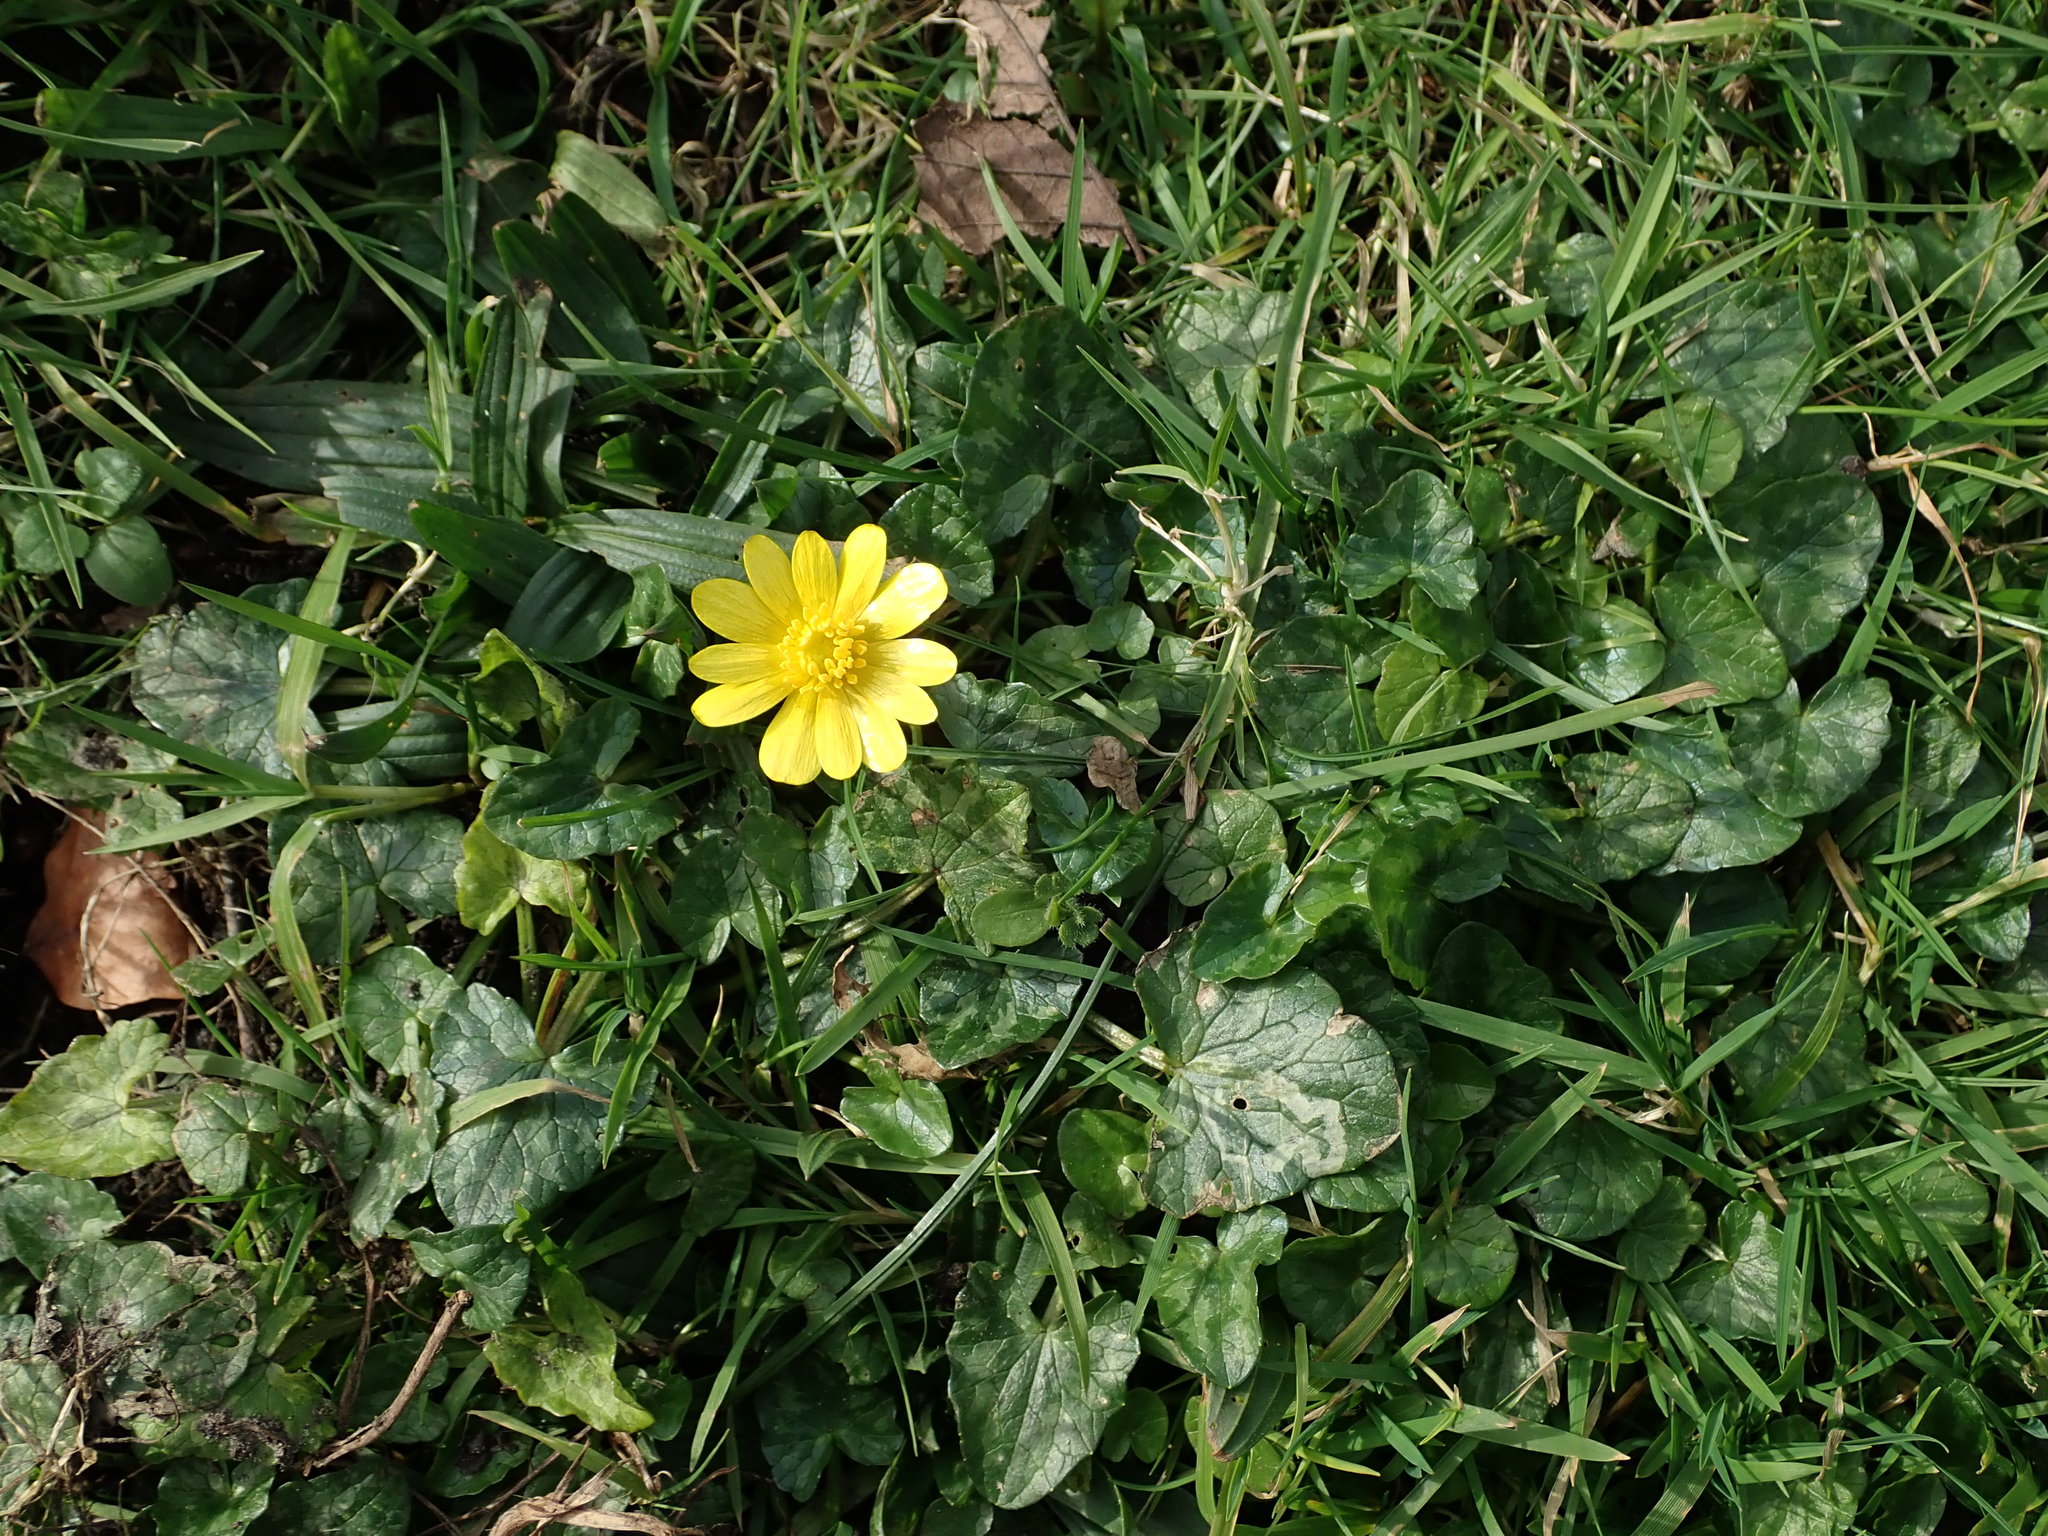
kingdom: Plantae
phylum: Tracheophyta
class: Magnoliopsida
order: Ranunculales
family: Ranunculaceae
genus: Ficaria
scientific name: Ficaria verna
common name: Lesser celandine
